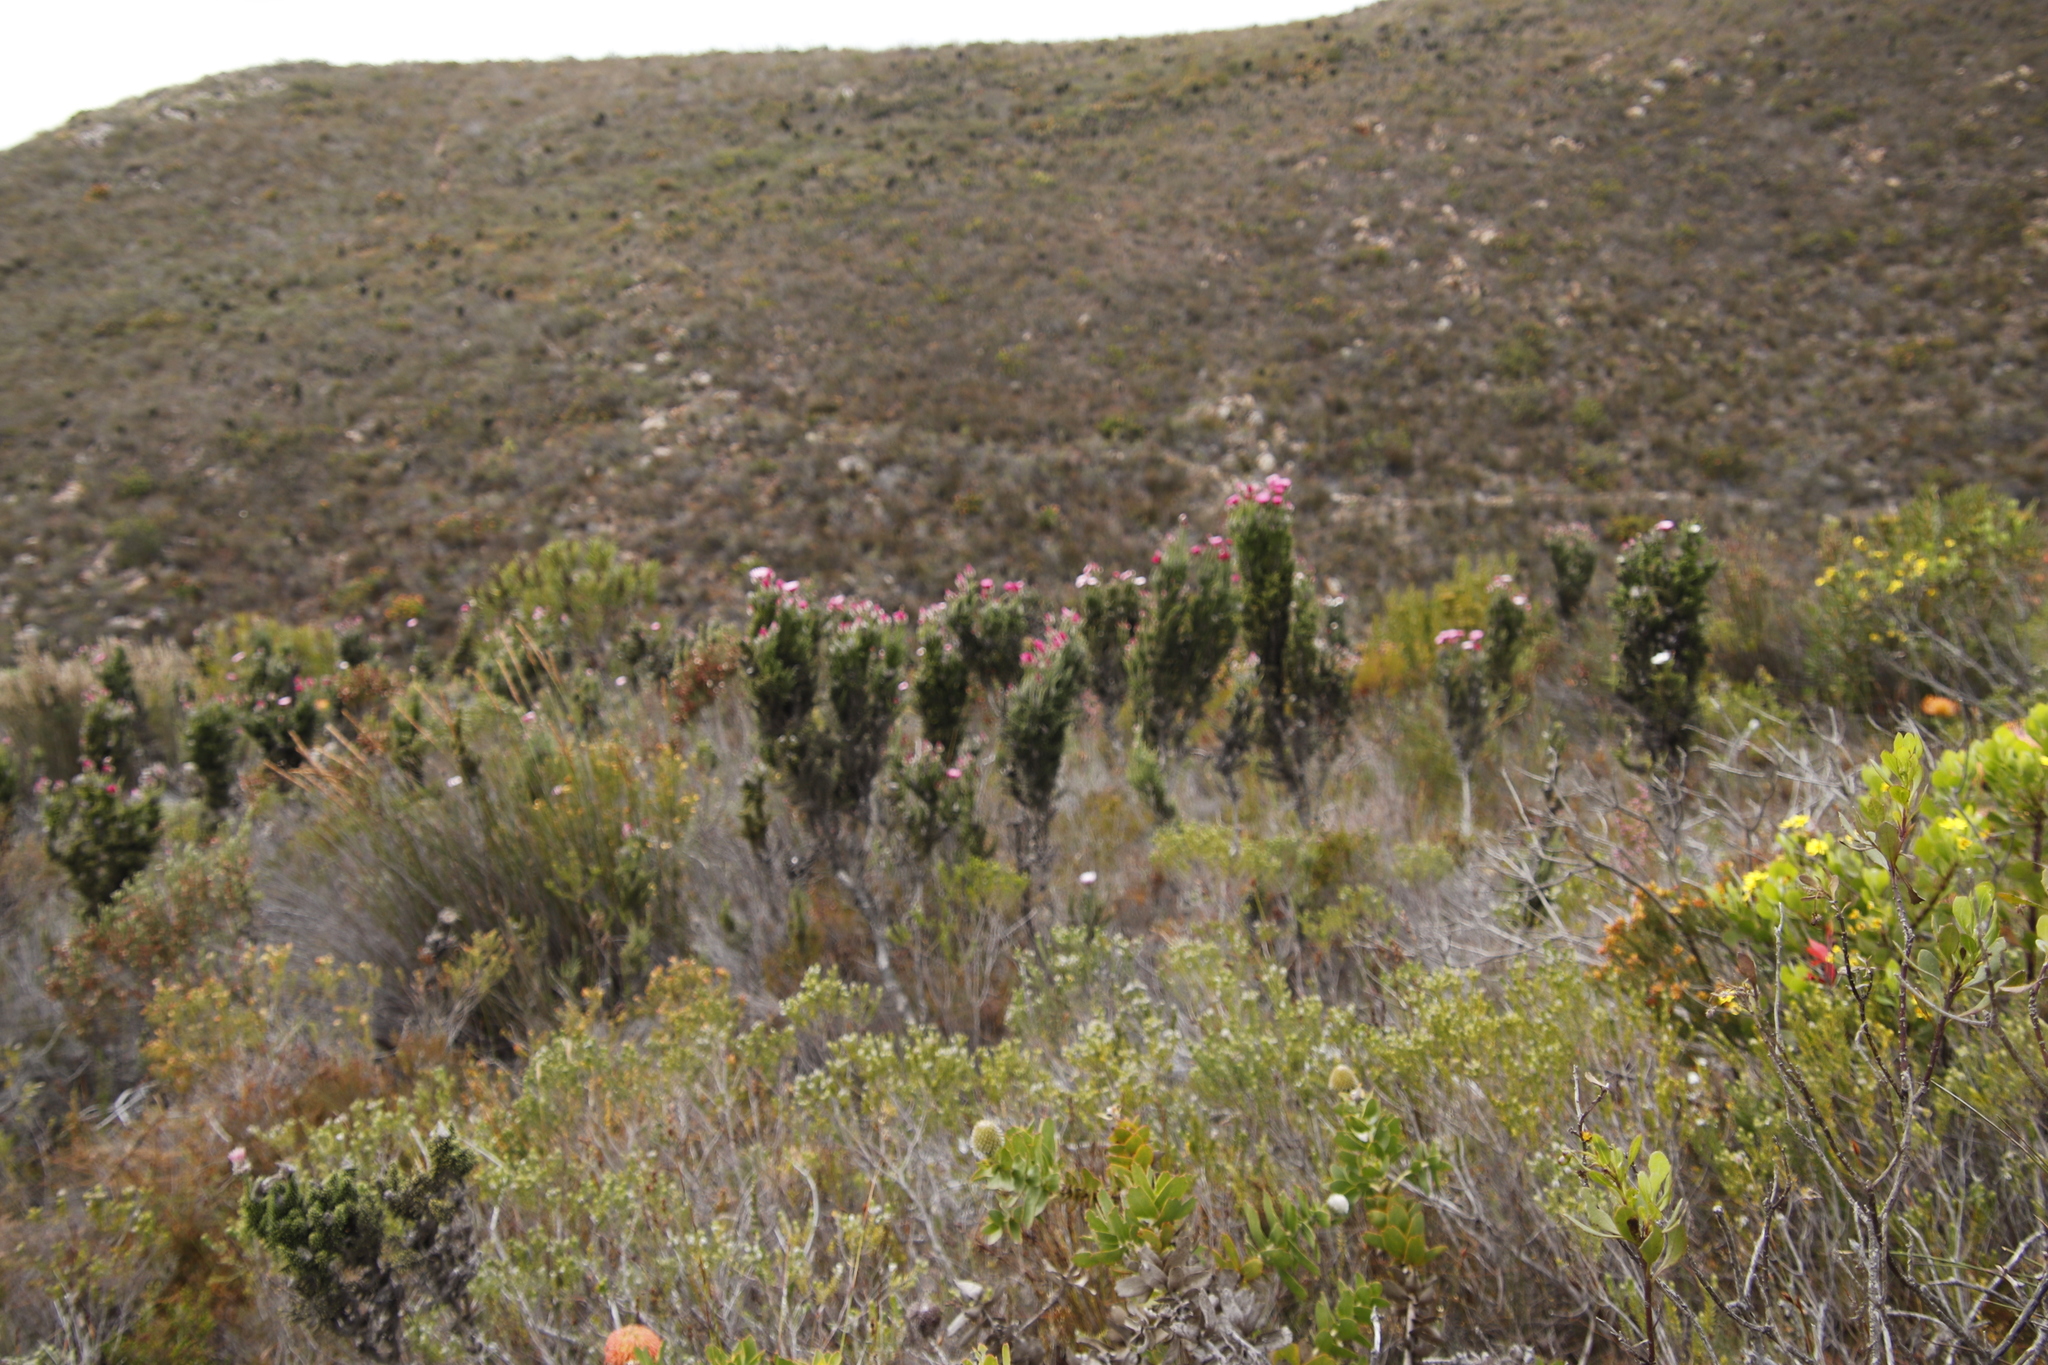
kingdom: Plantae
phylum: Tracheophyta
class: Magnoliopsida
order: Asterales
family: Asteraceae
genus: Phaenocoma
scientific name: Phaenocoma prolifera
